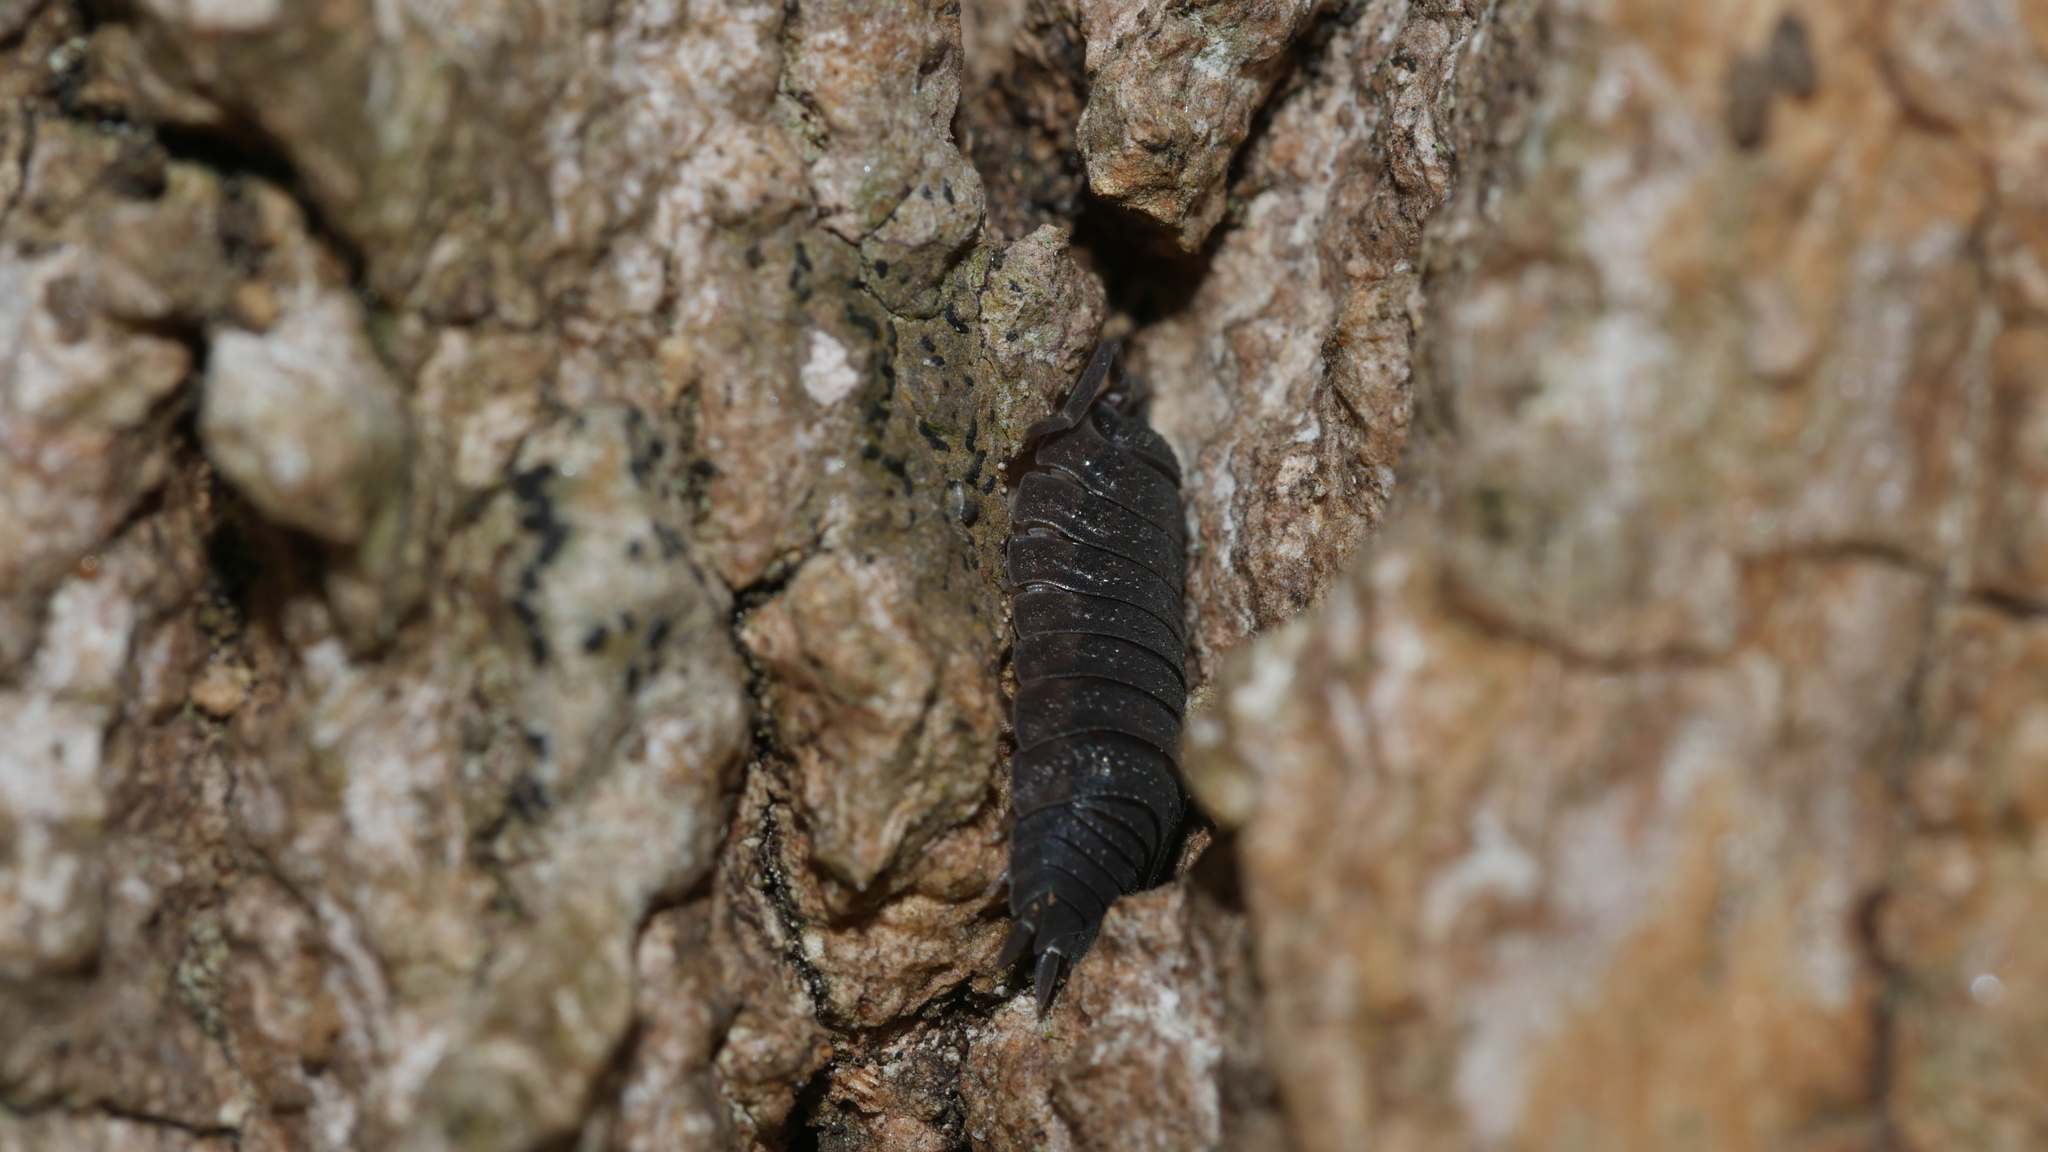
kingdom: Animalia
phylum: Arthropoda
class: Malacostraca
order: Isopoda
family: Porcellionidae
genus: Porcellio
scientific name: Porcellio scaber
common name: Common rough woodlouse
